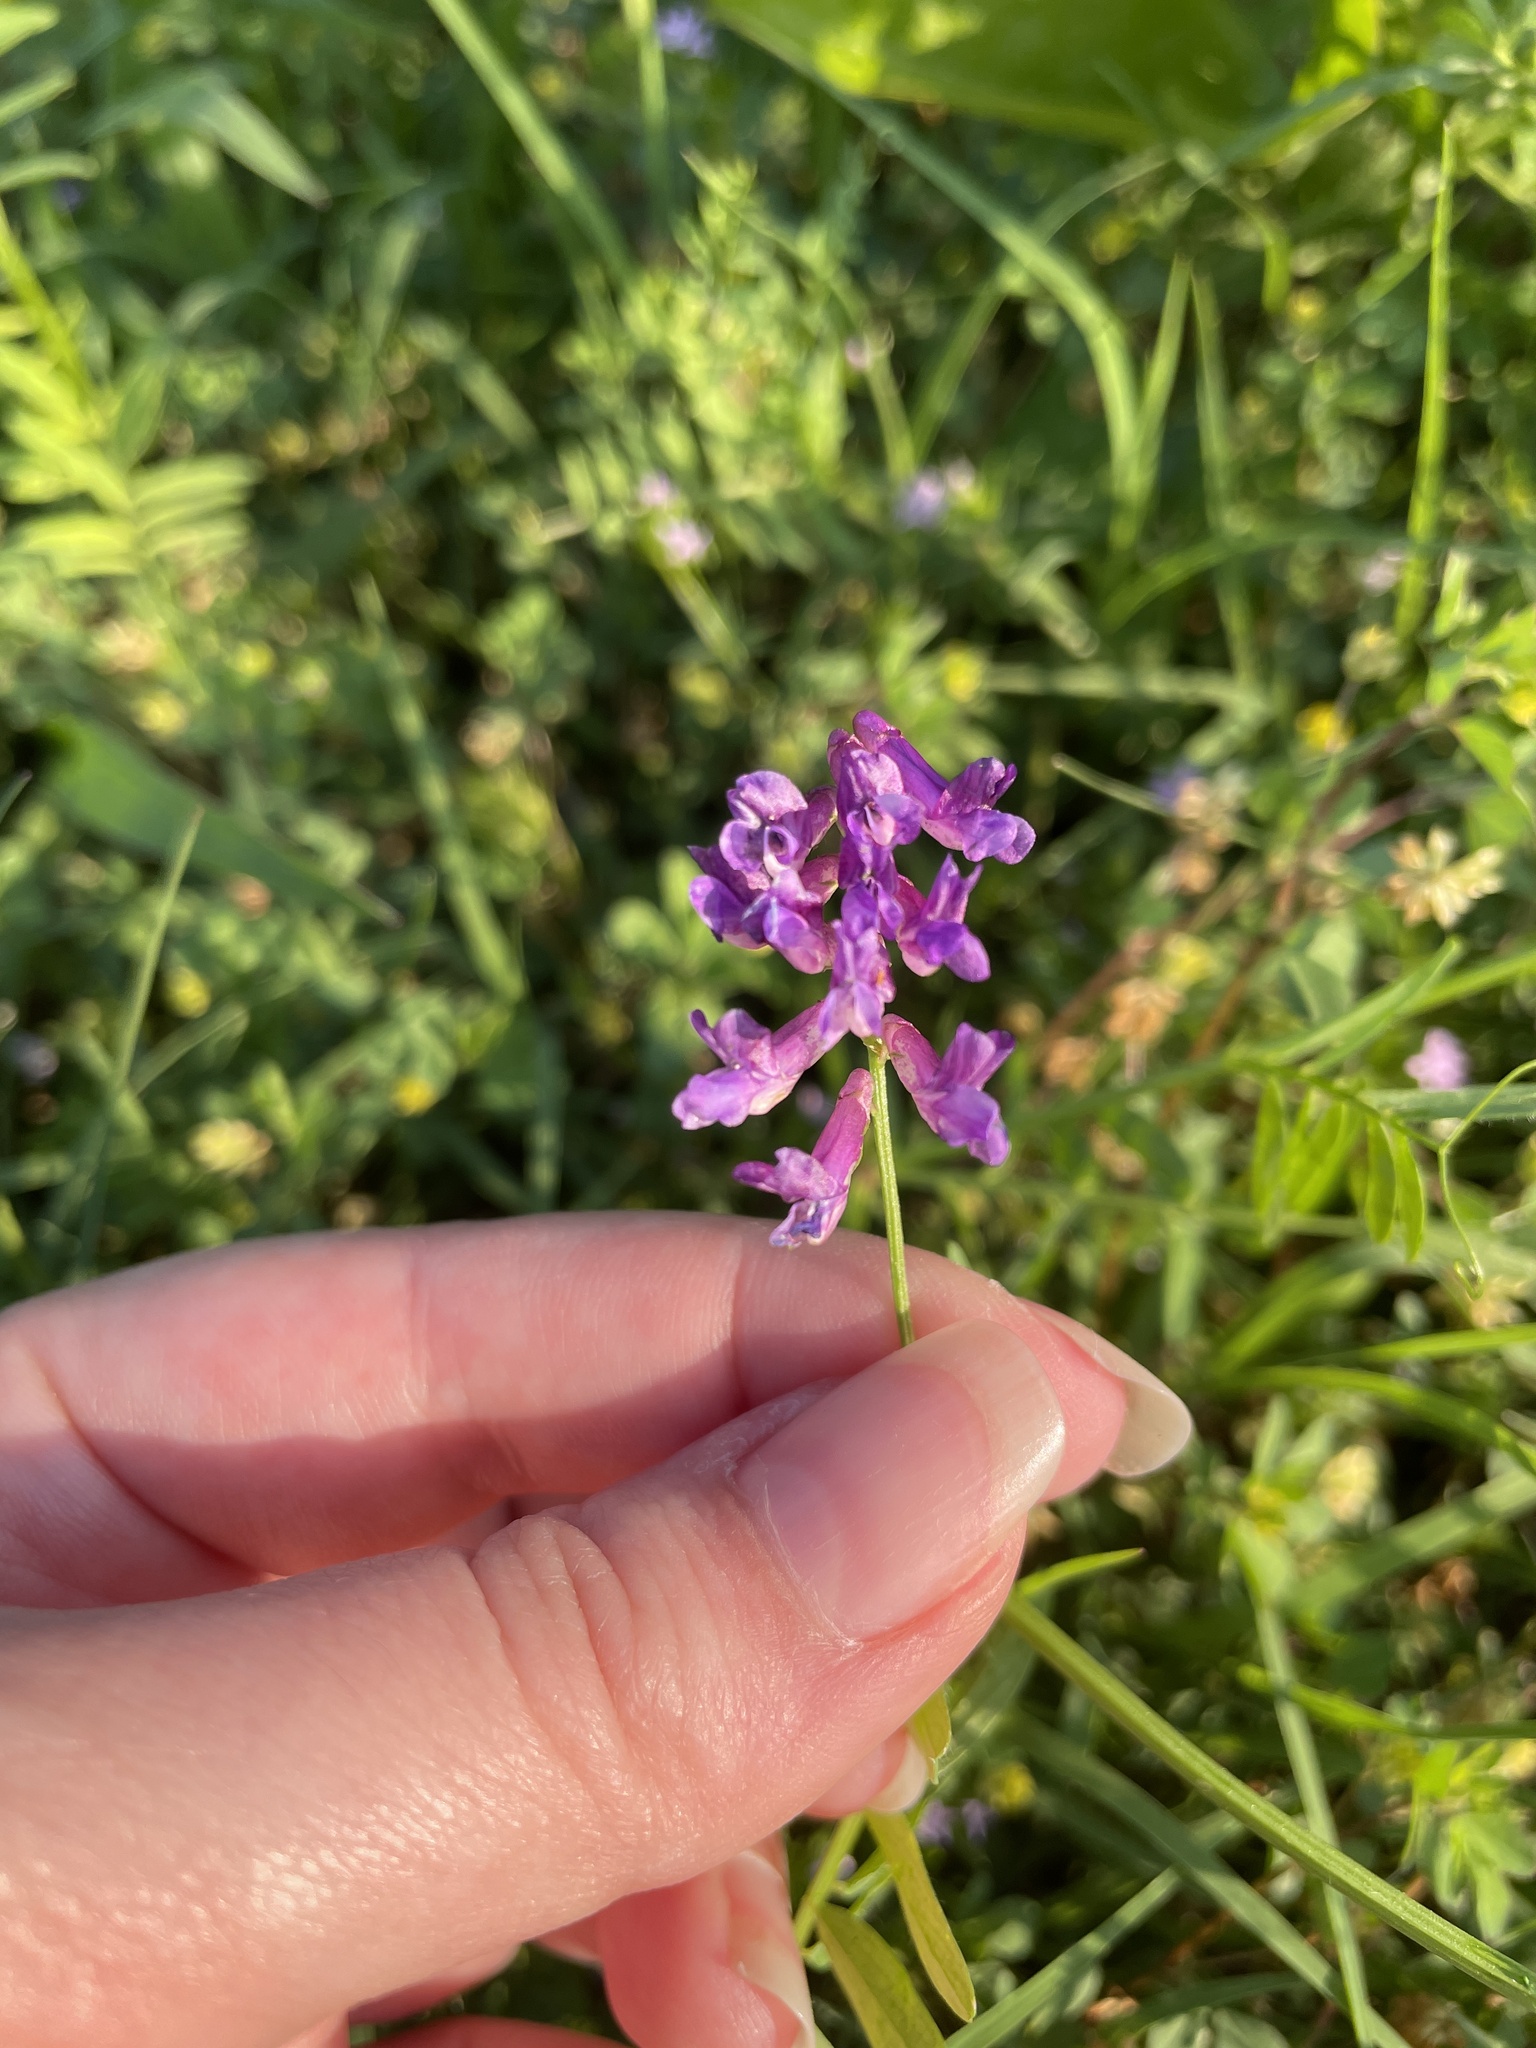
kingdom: Plantae
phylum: Tracheophyta
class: Magnoliopsida
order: Fabales
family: Fabaceae
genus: Vicia
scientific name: Vicia villosa
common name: Fodder vetch
